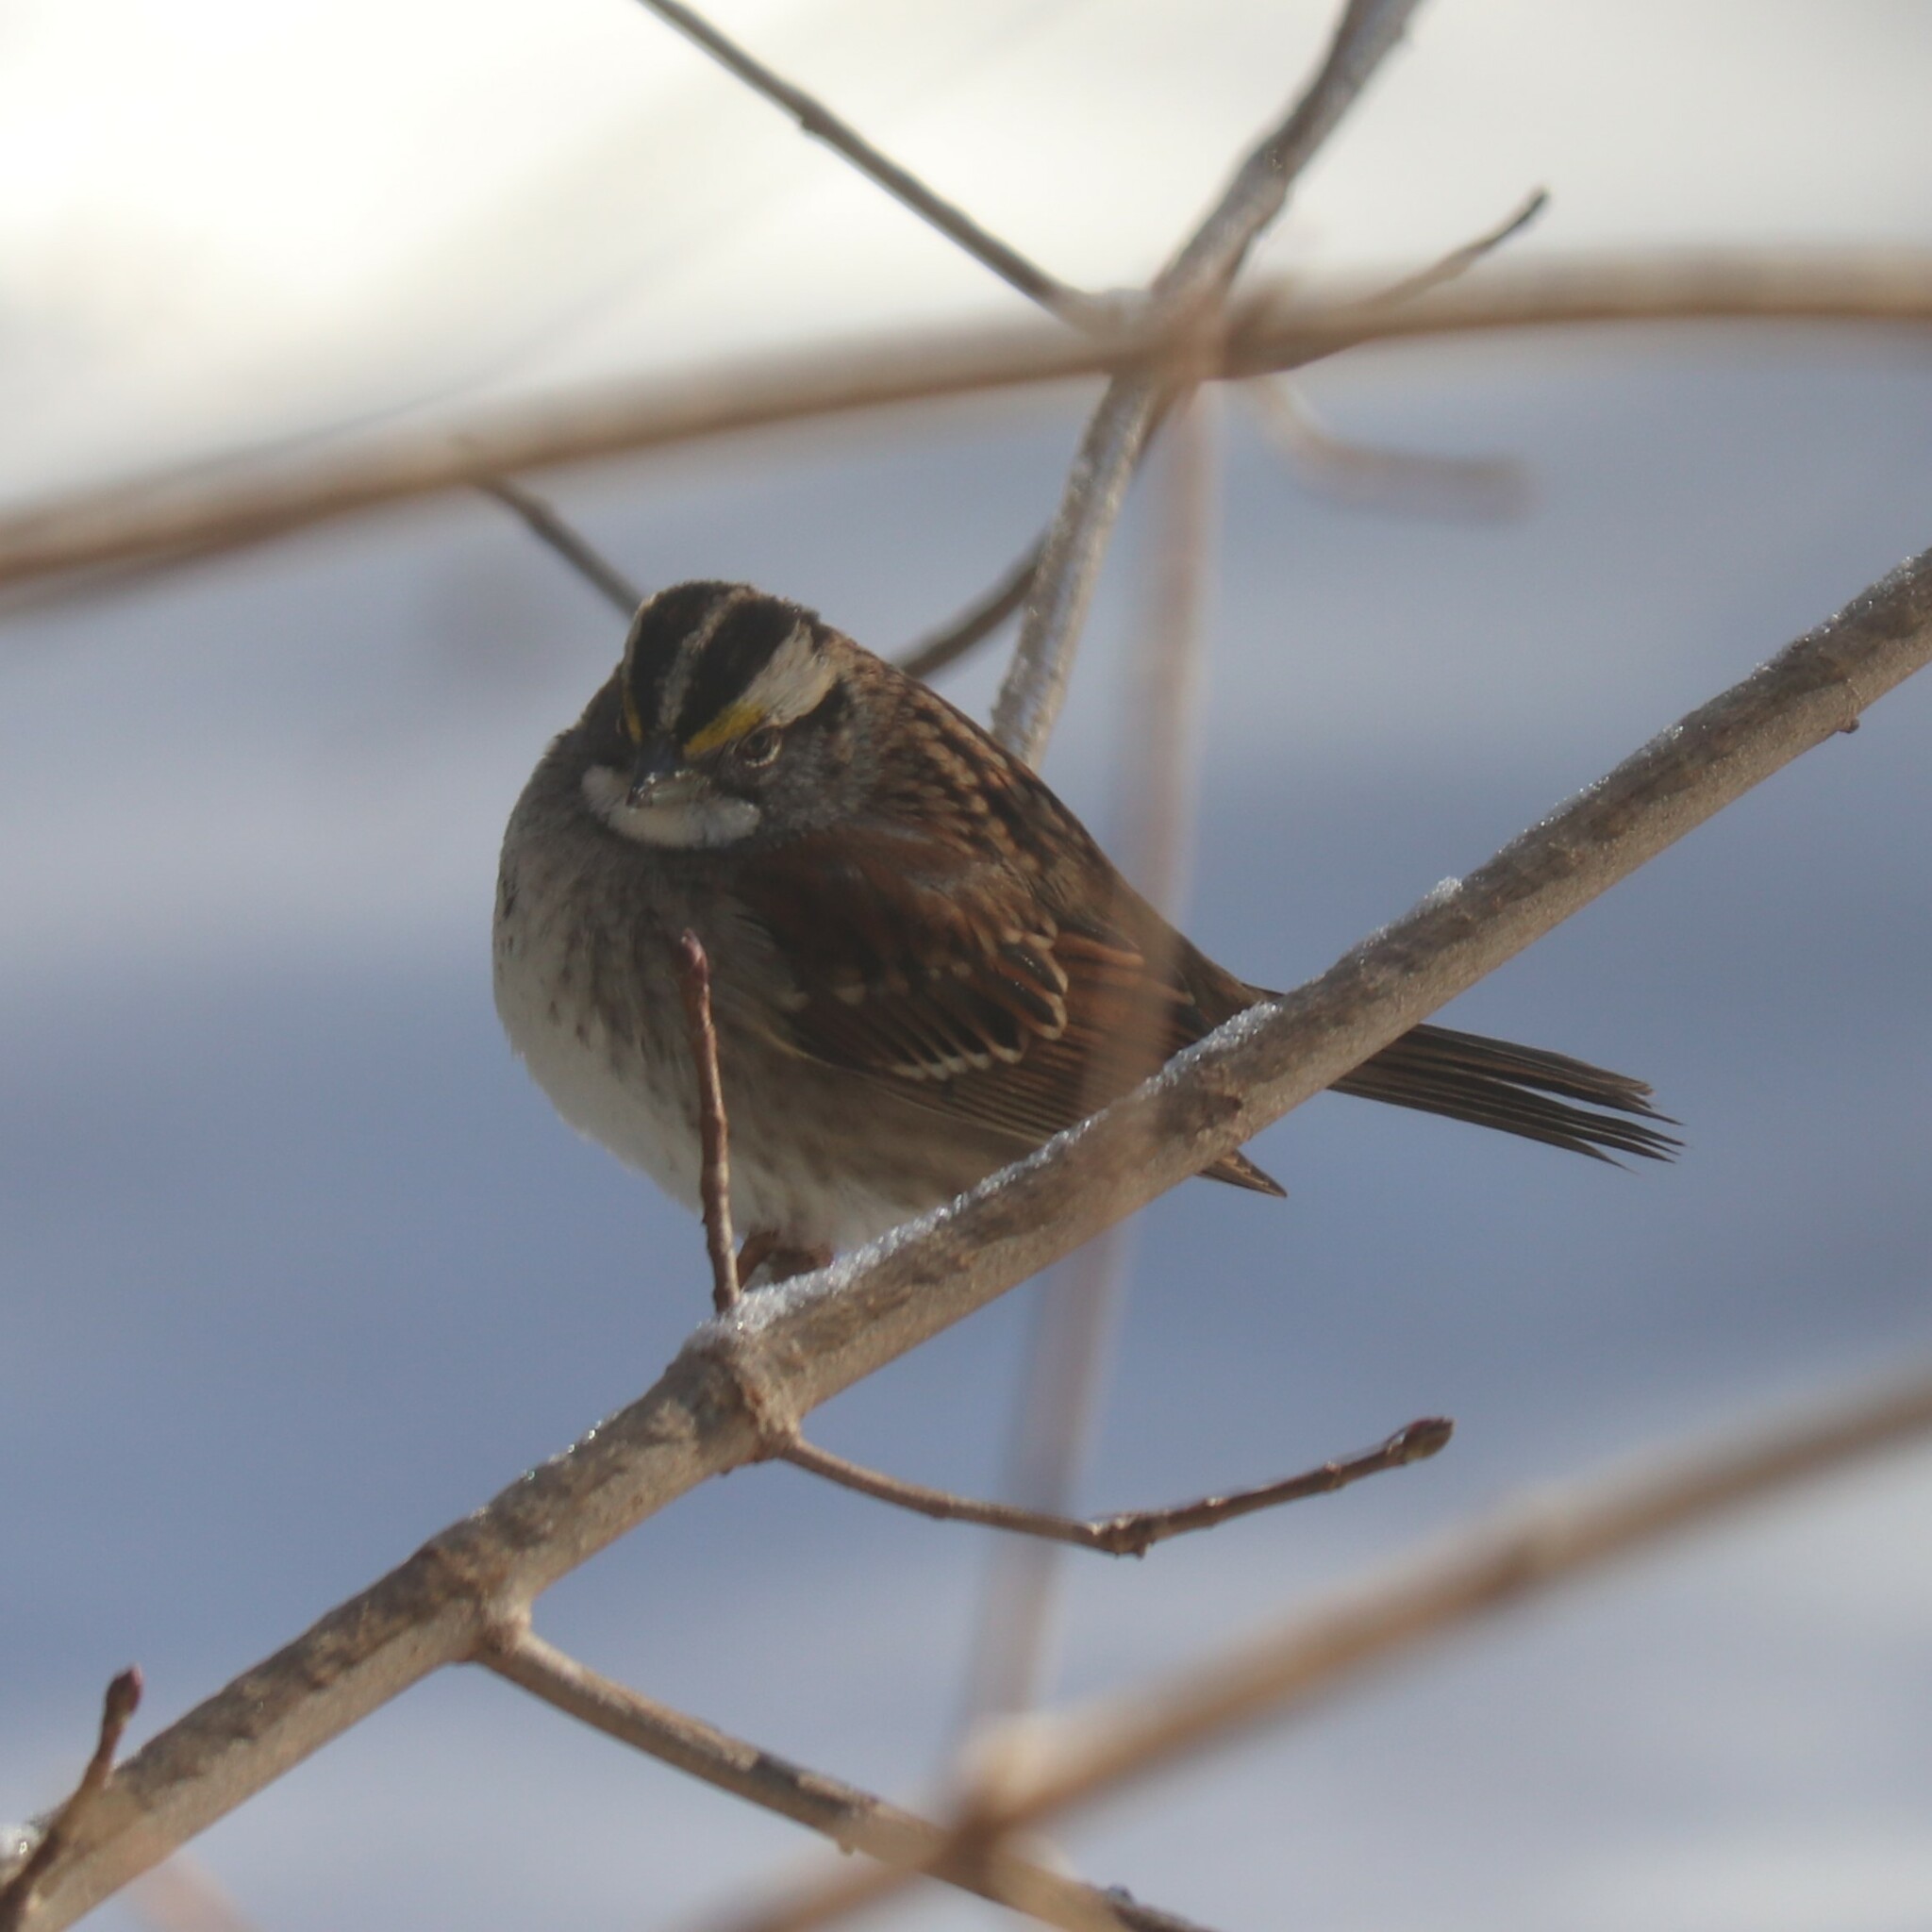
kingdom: Animalia
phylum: Chordata
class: Aves
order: Passeriformes
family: Passerellidae
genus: Zonotrichia
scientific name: Zonotrichia albicollis
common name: White-throated sparrow
